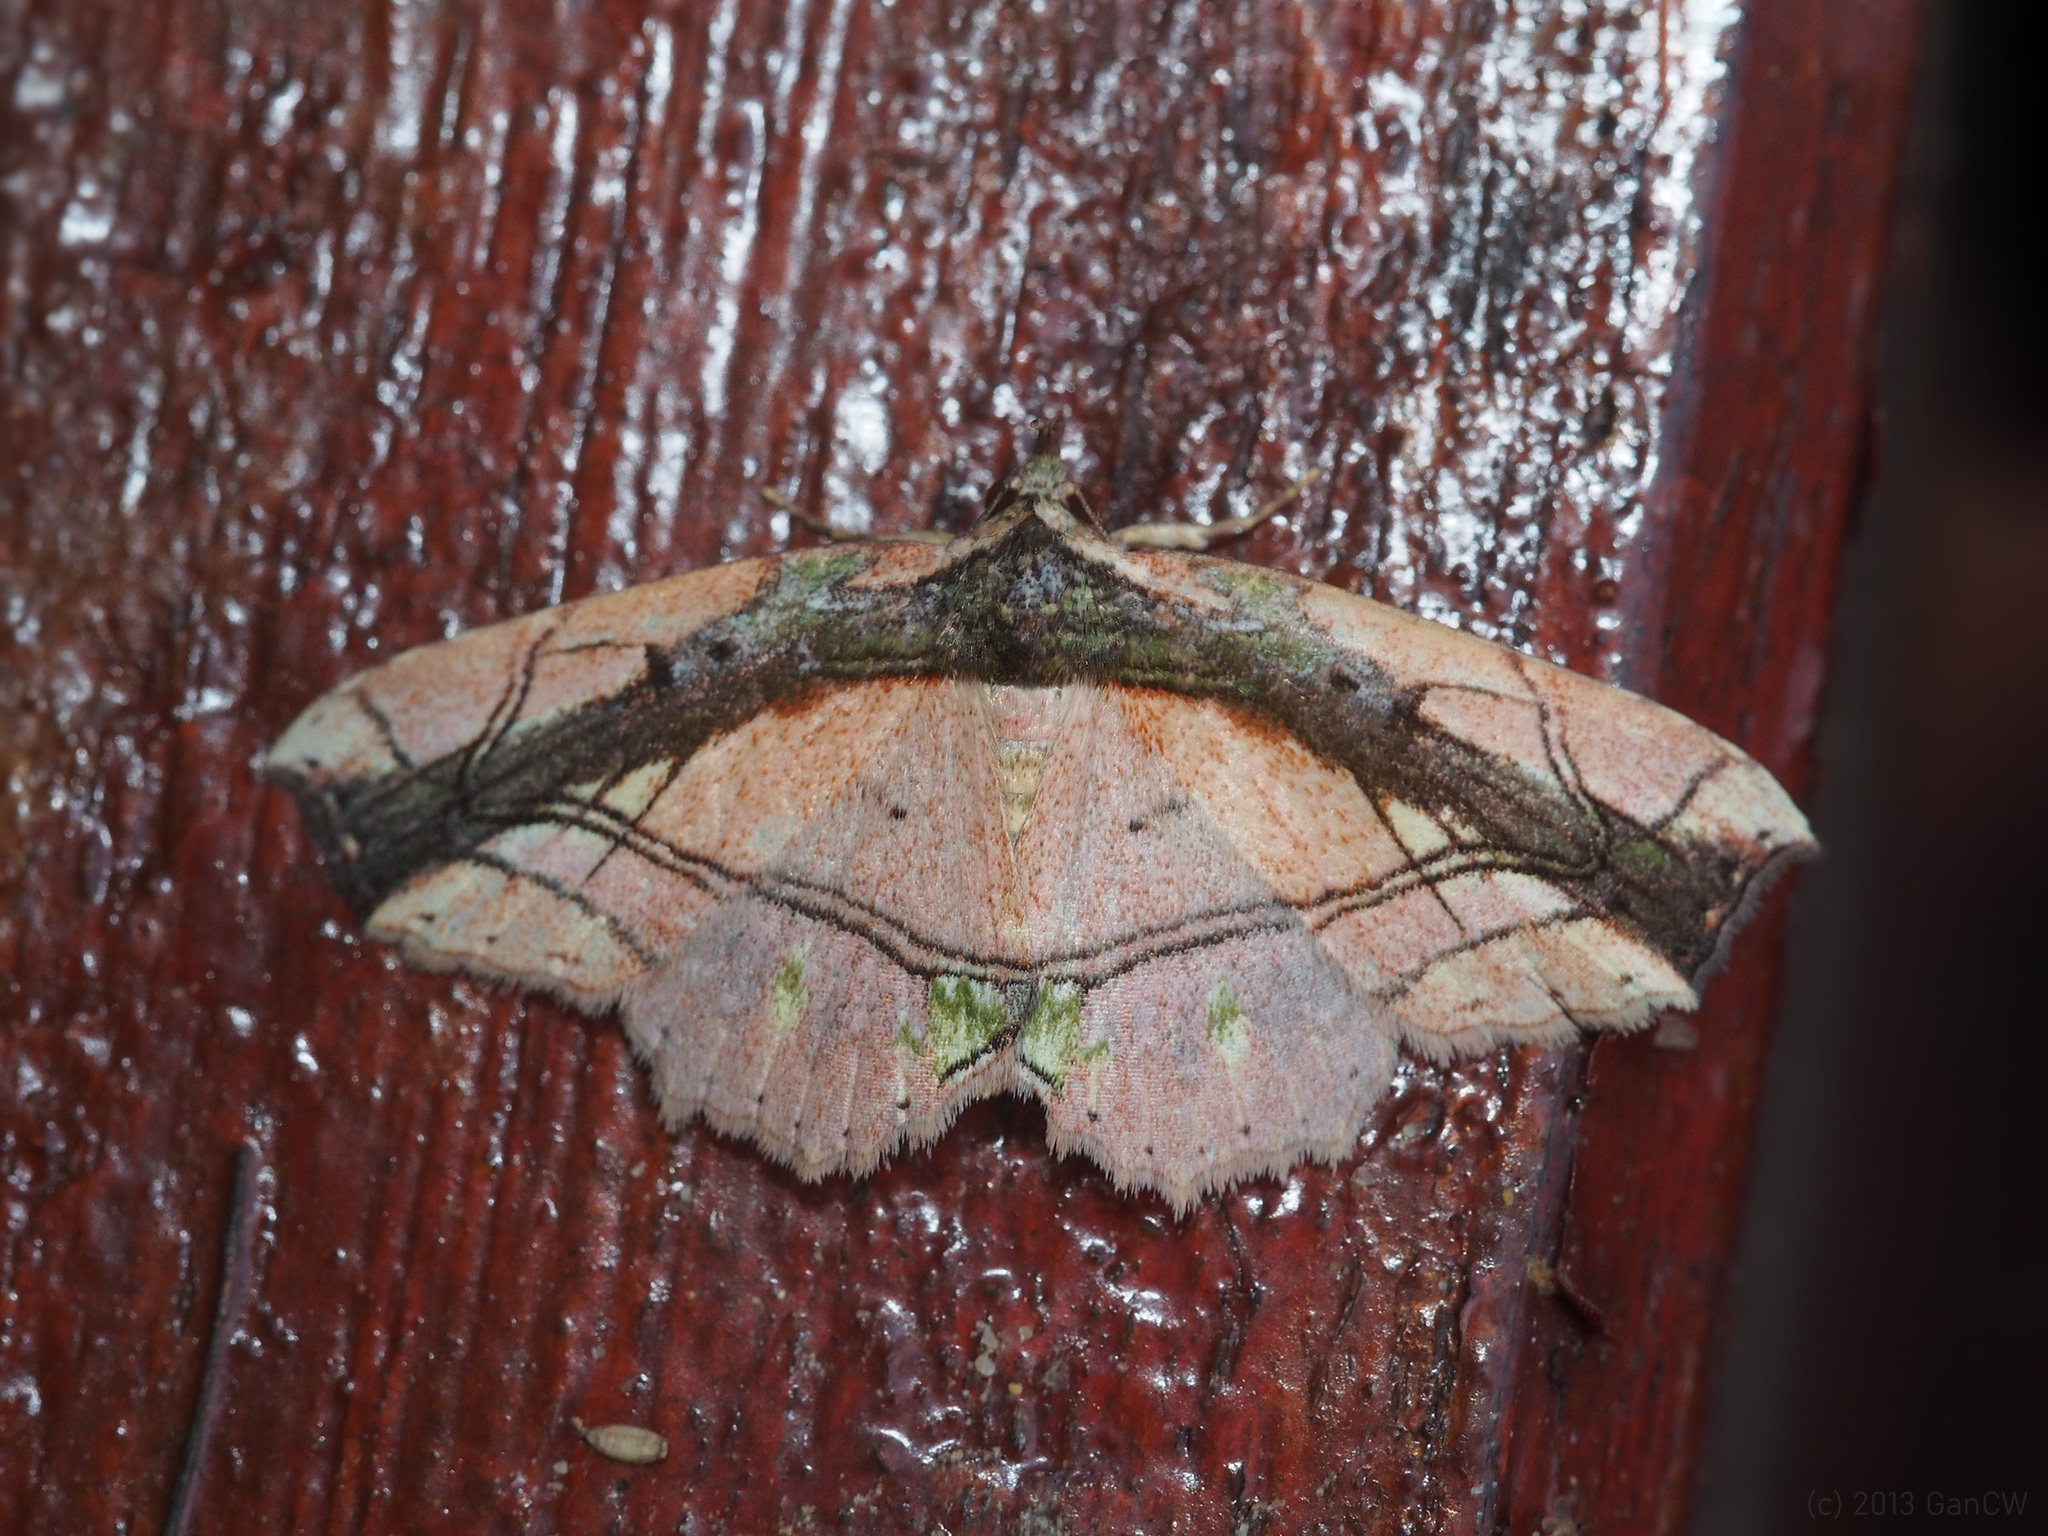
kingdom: Animalia
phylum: Arthropoda
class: Insecta
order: Lepidoptera
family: Erebidae
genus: Tamba
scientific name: Tamba lala
